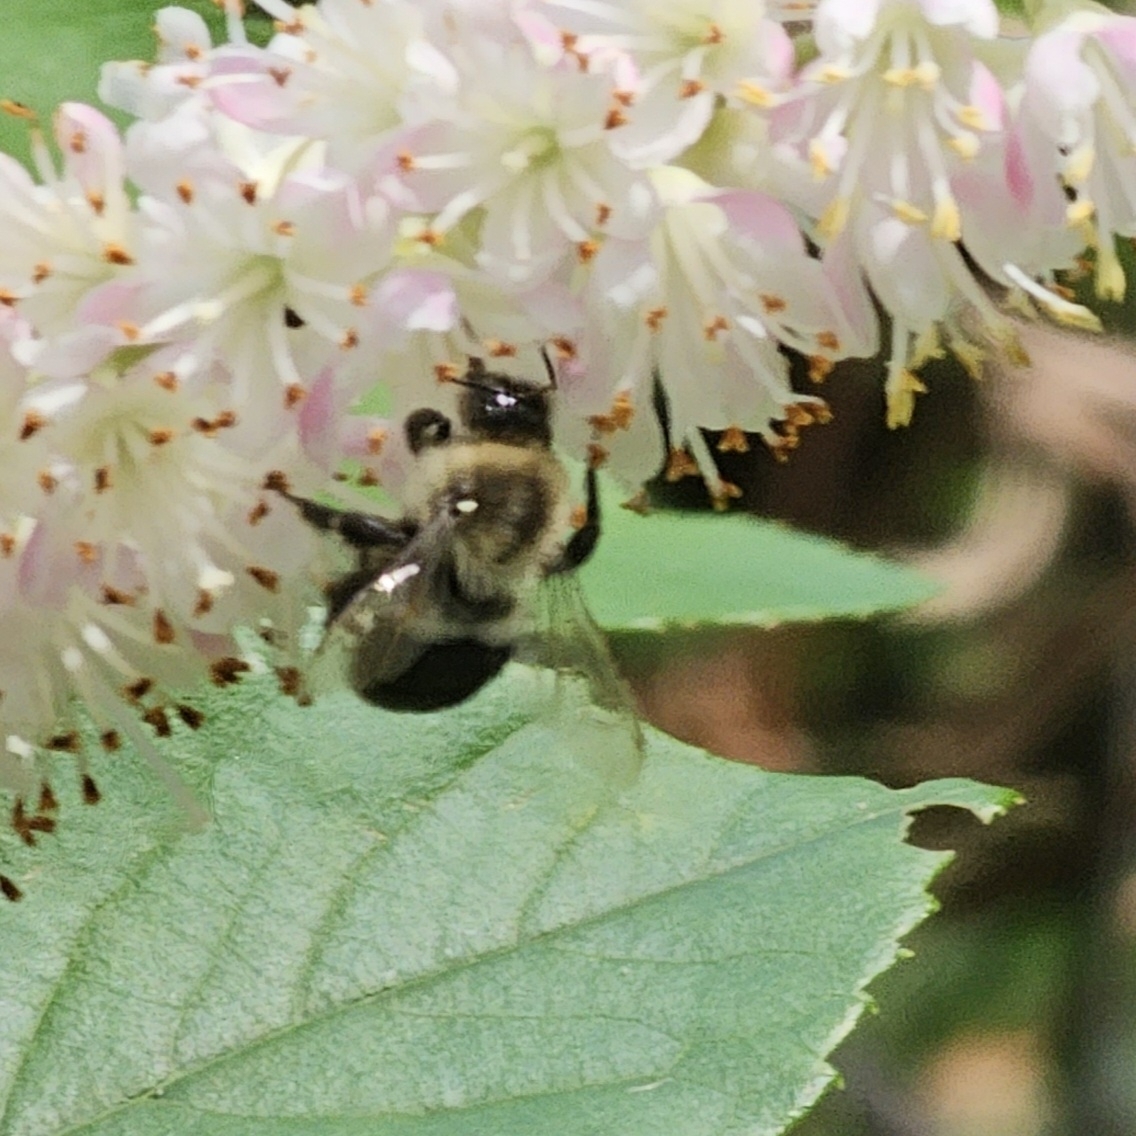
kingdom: Animalia
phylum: Arthropoda
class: Insecta
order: Hymenoptera
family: Apidae
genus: Bombus
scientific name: Bombus impatiens
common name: Common eastern bumble bee
